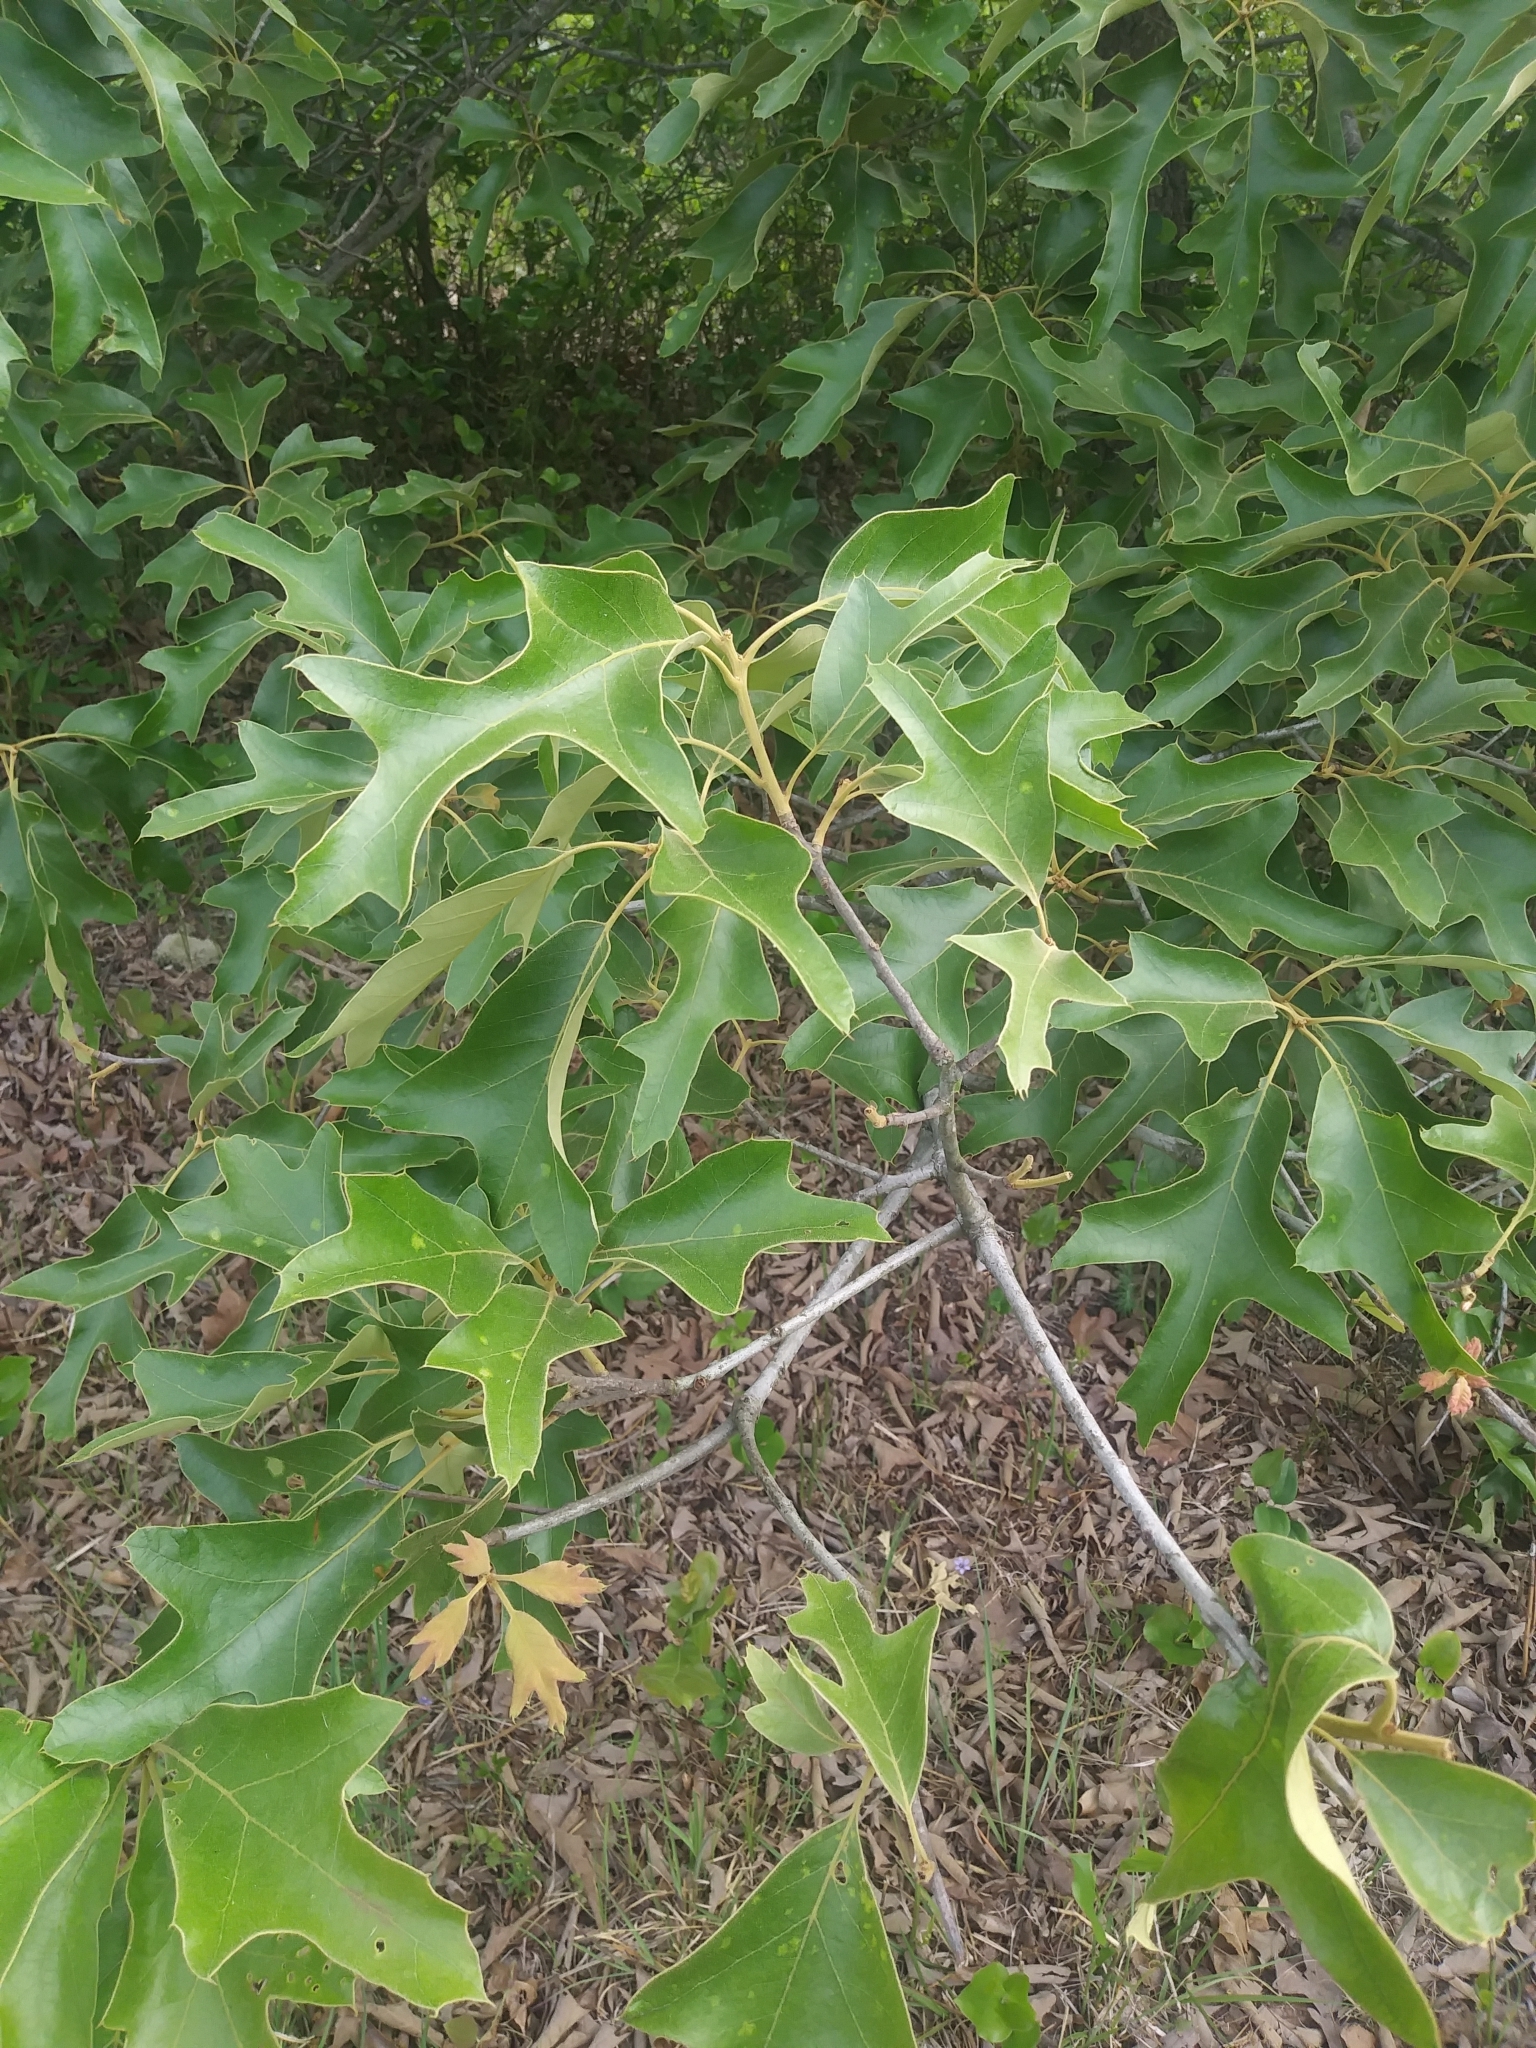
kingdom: Plantae
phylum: Tracheophyta
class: Magnoliopsida
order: Fagales
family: Fagaceae
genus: Quercus
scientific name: Quercus falcata
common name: Southern red oak
